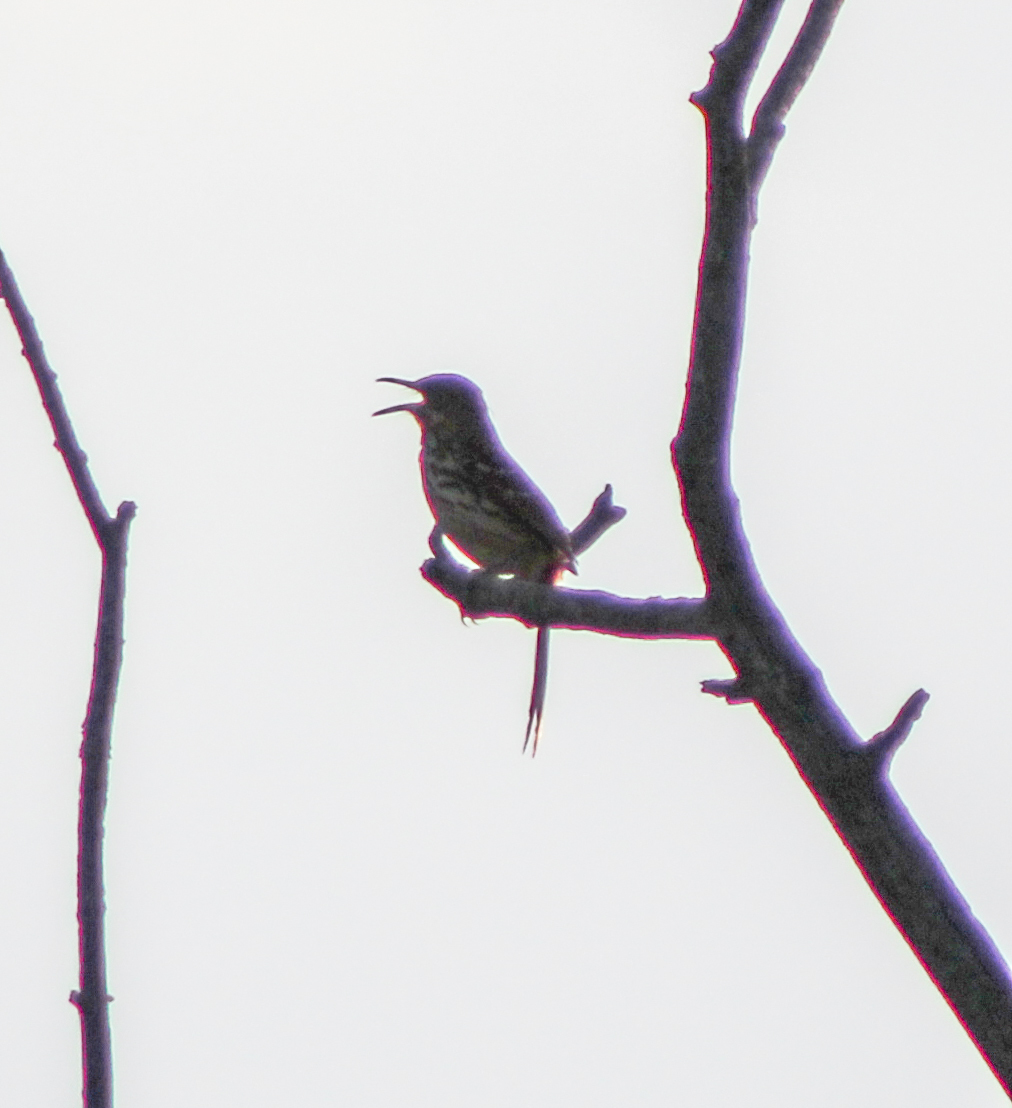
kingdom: Animalia
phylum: Chordata
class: Aves
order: Passeriformes
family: Mimidae
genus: Toxostoma
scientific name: Toxostoma rufum
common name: Brown thrasher
